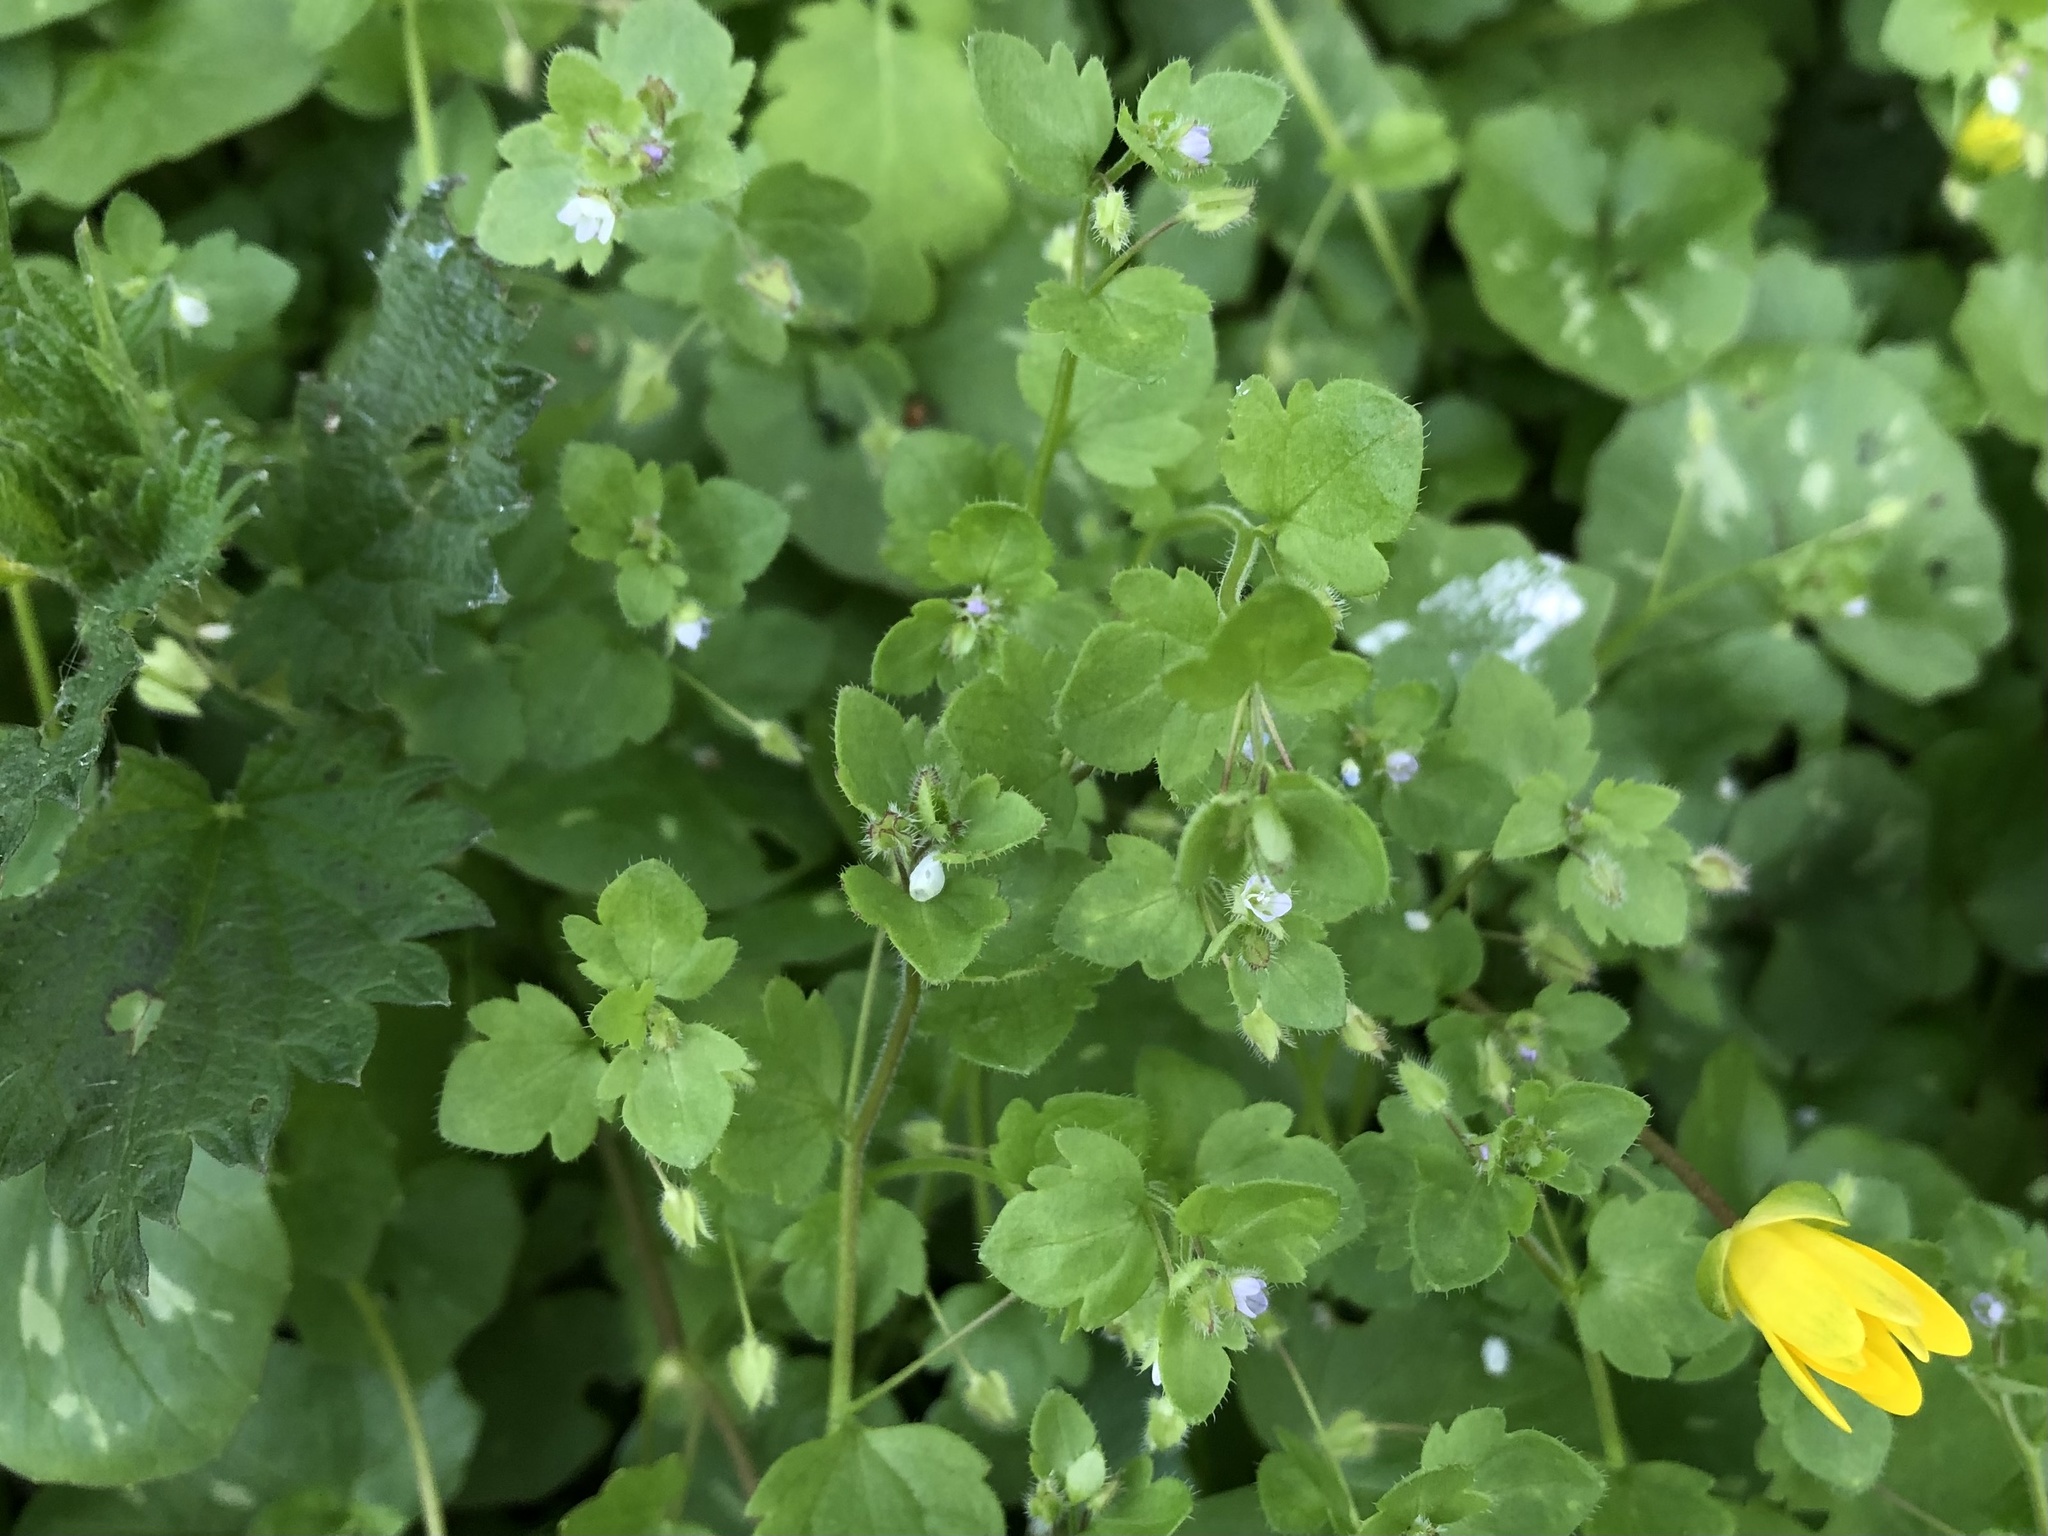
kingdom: Plantae
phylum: Tracheophyta
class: Magnoliopsida
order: Lamiales
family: Plantaginaceae
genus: Veronica
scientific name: Veronica sublobata
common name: False ivy-leaved speedwell
